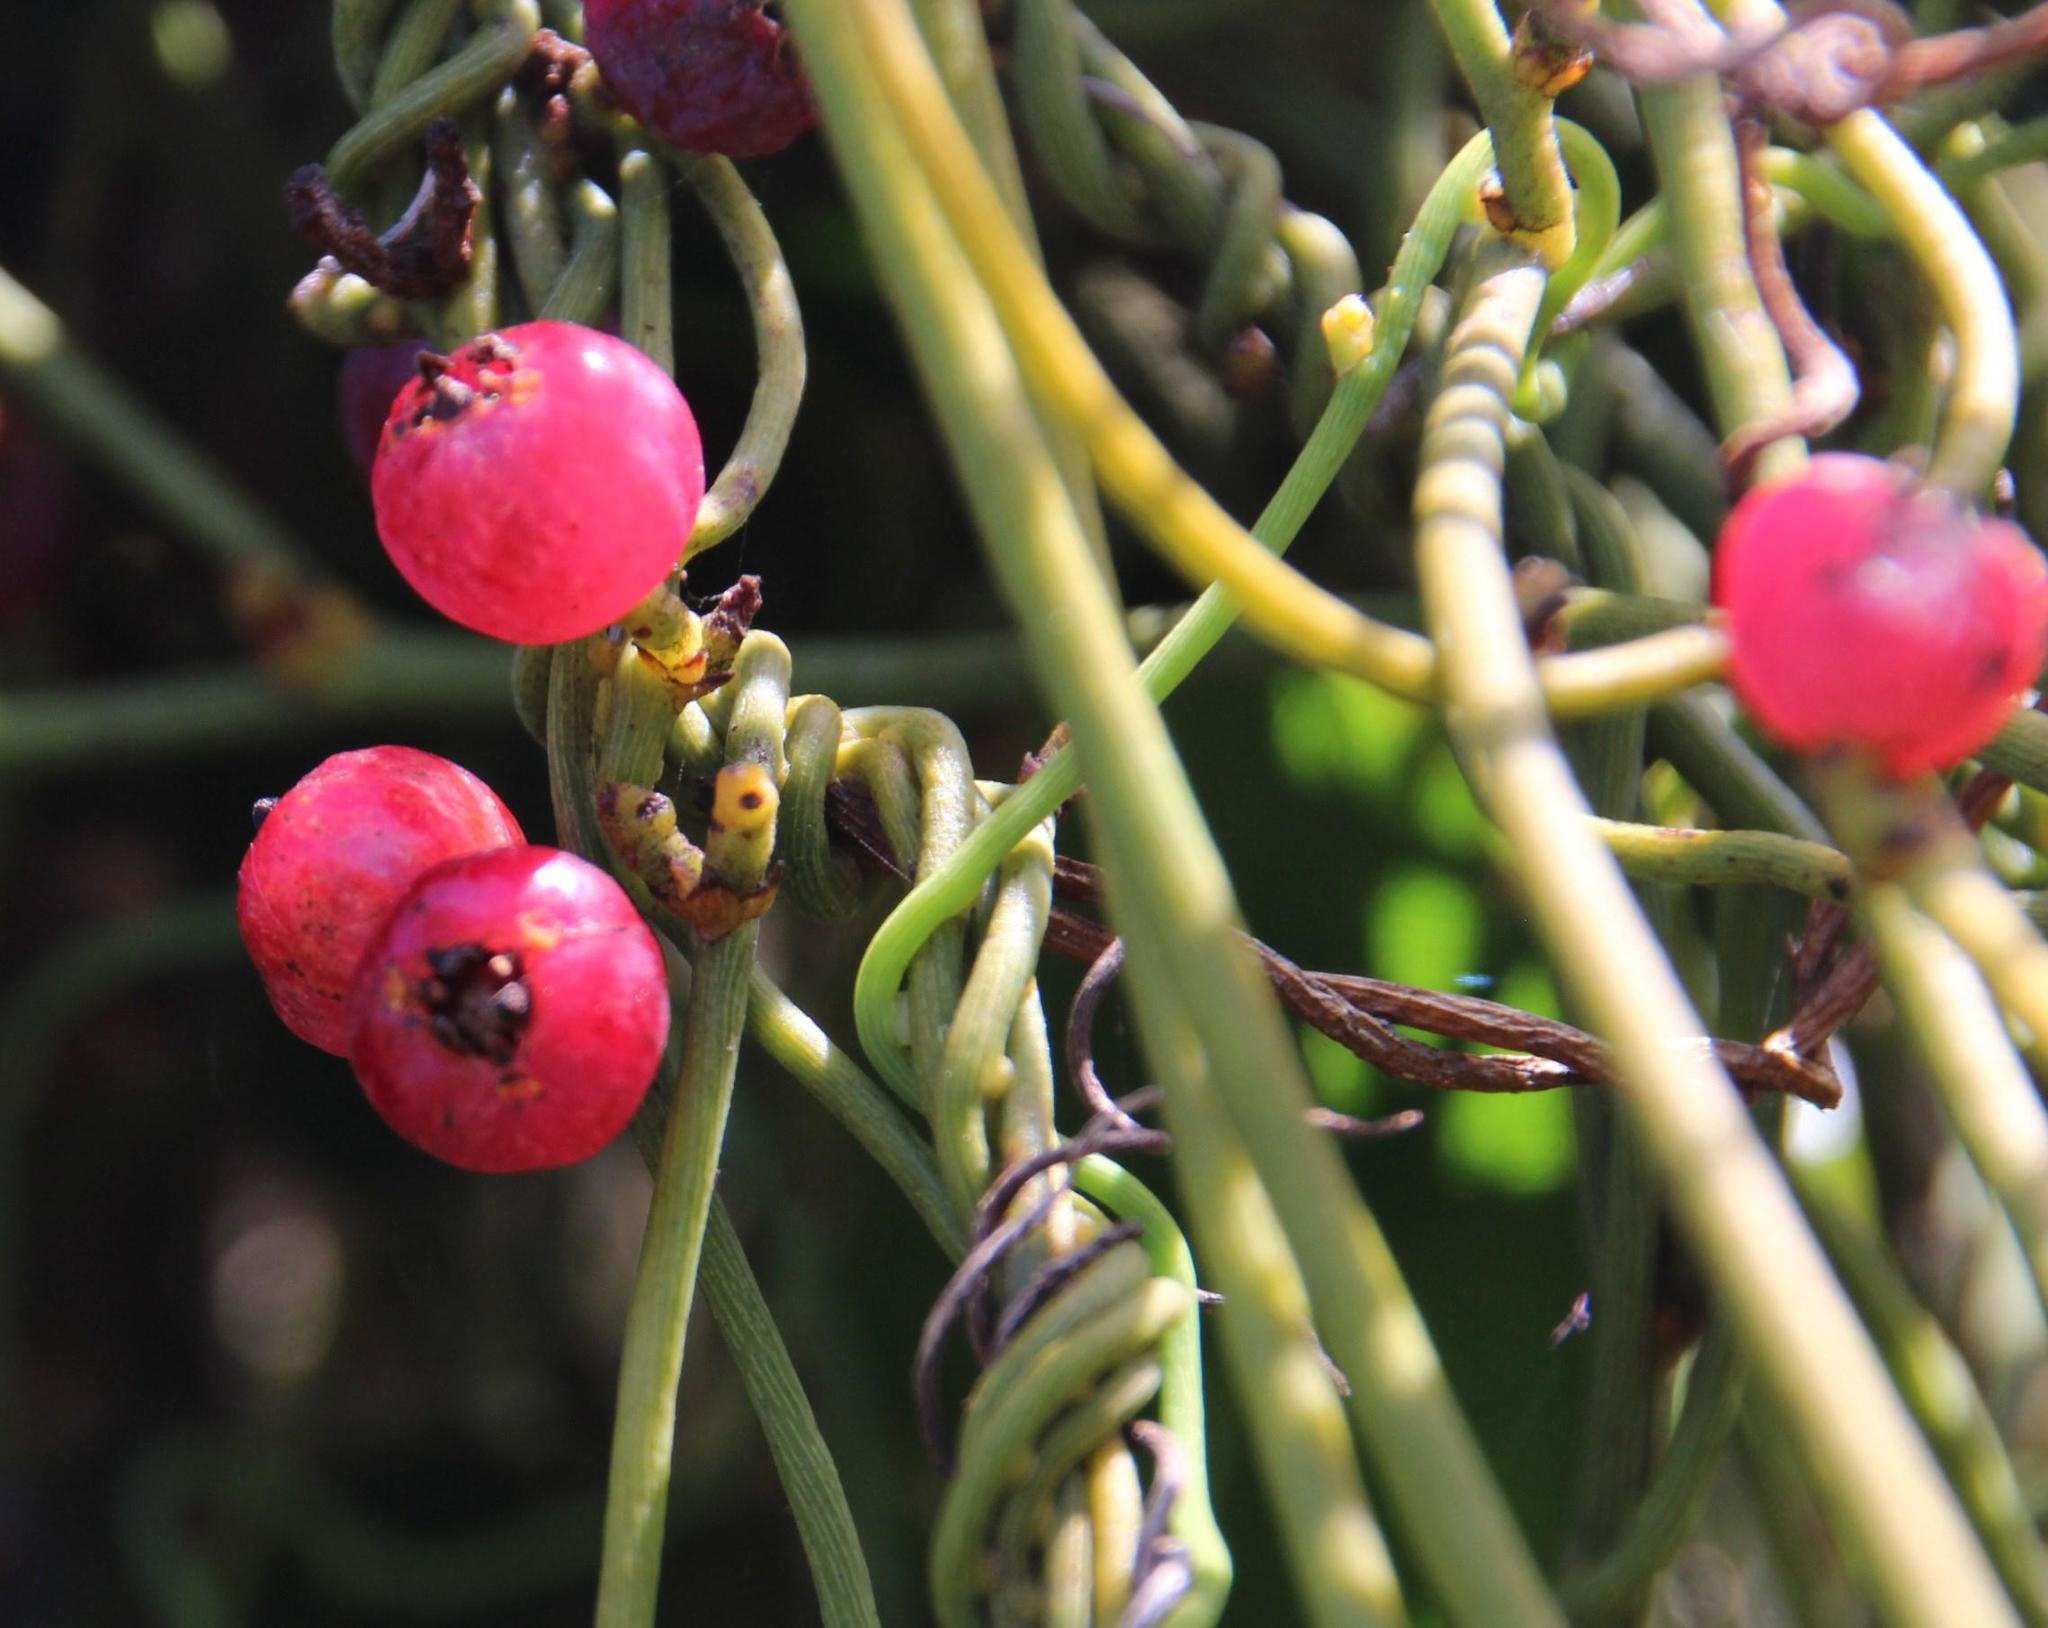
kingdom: Plantae
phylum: Tracheophyta
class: Magnoliopsida
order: Laurales
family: Lauraceae
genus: Cassytha
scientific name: Cassytha ciliolata
